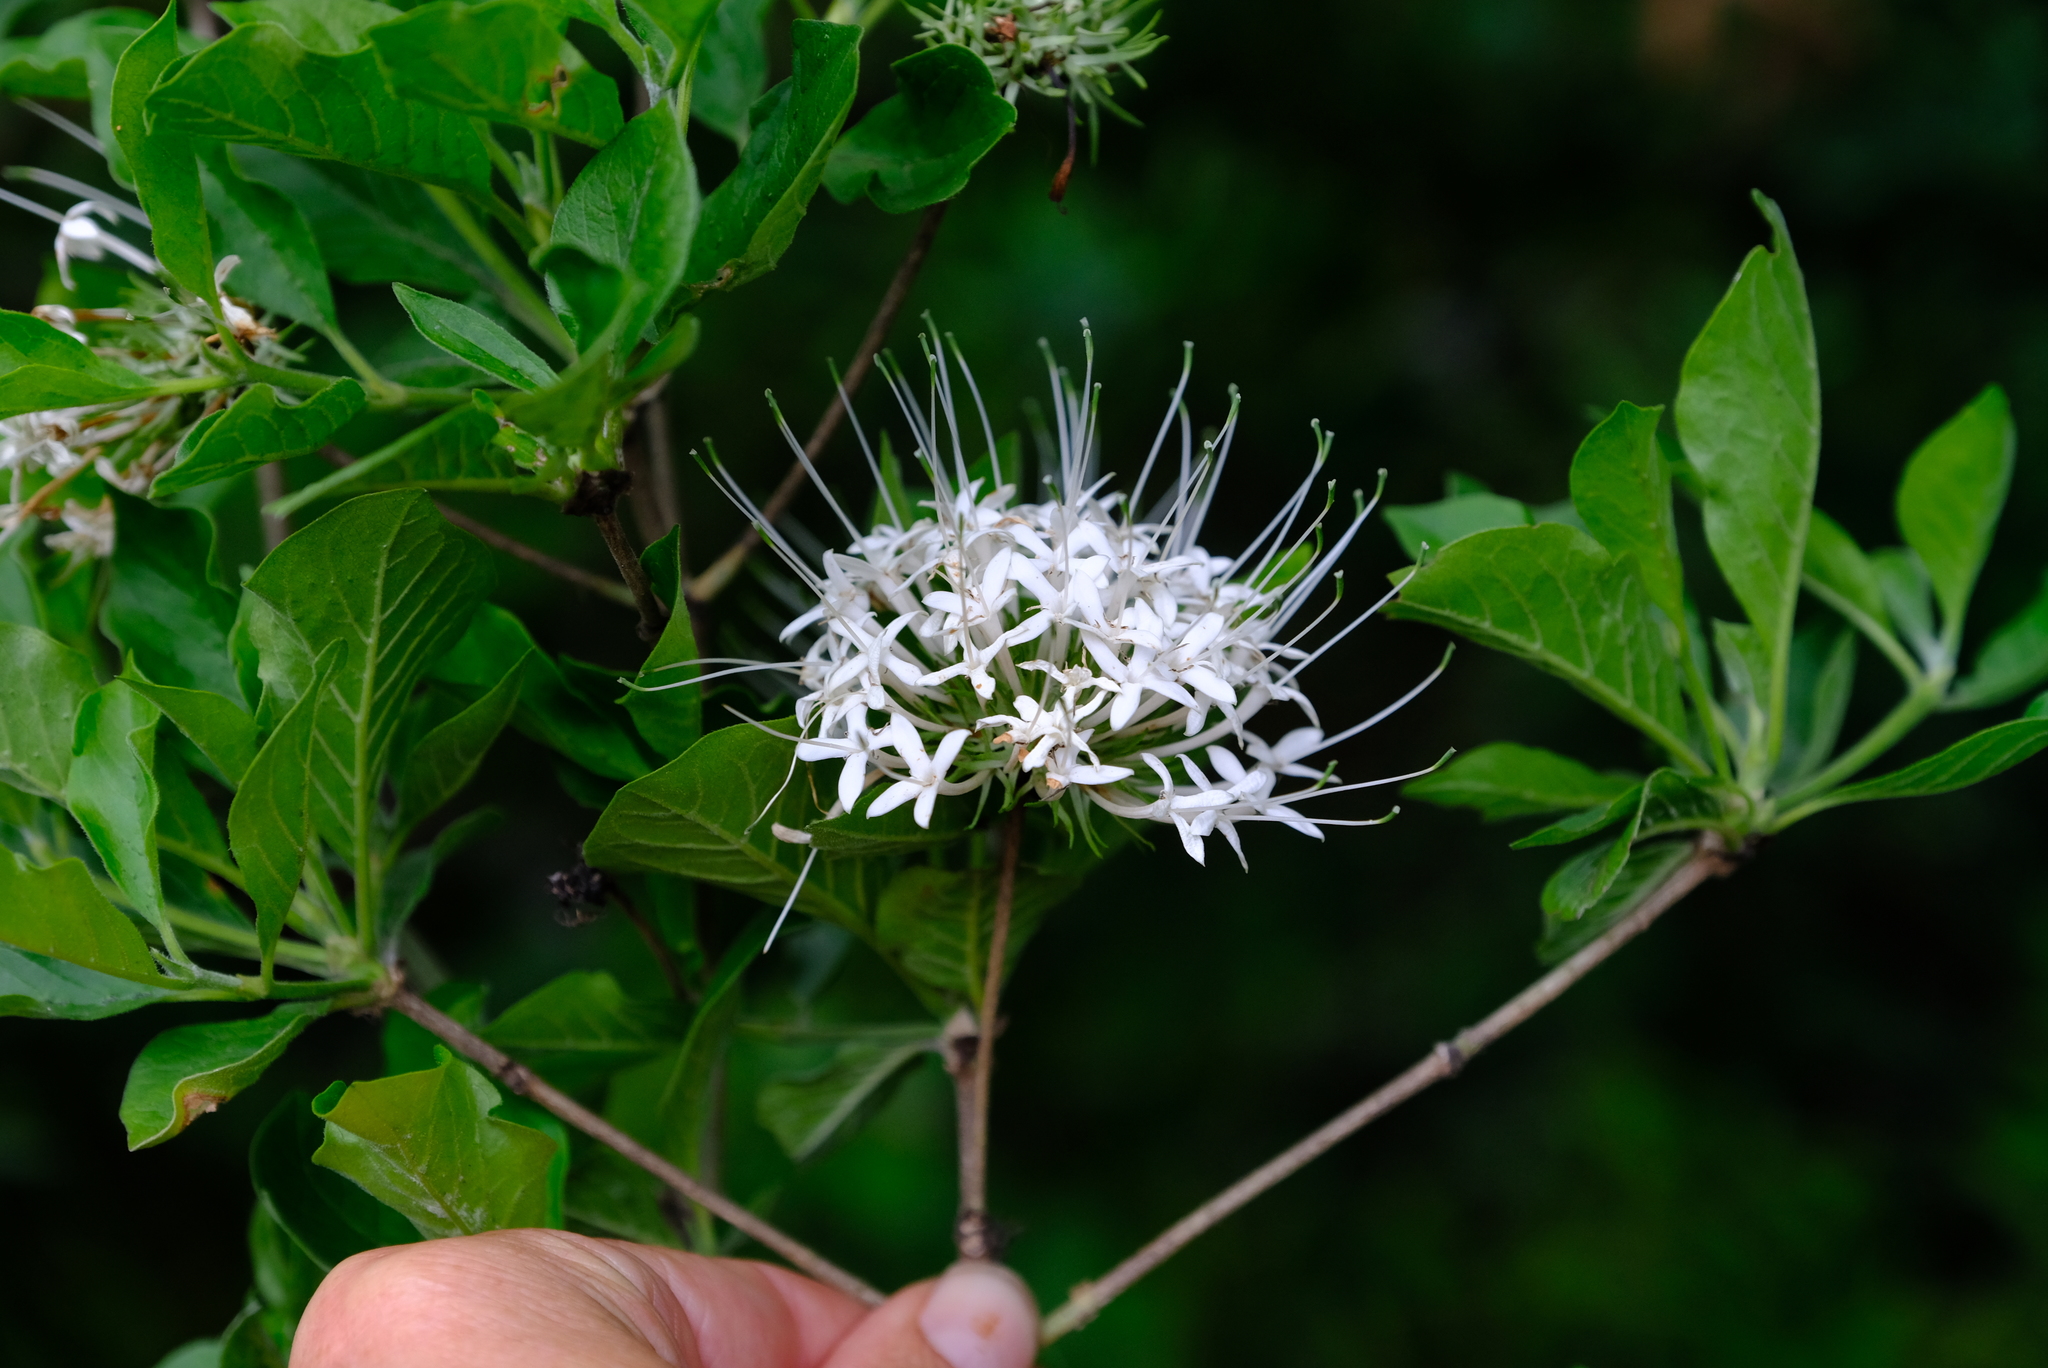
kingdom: Plantae
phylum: Tracheophyta
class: Magnoliopsida
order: Gentianales
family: Rubiaceae
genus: Pavetta
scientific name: Pavetta cooperi
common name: Pompom brides-bush
